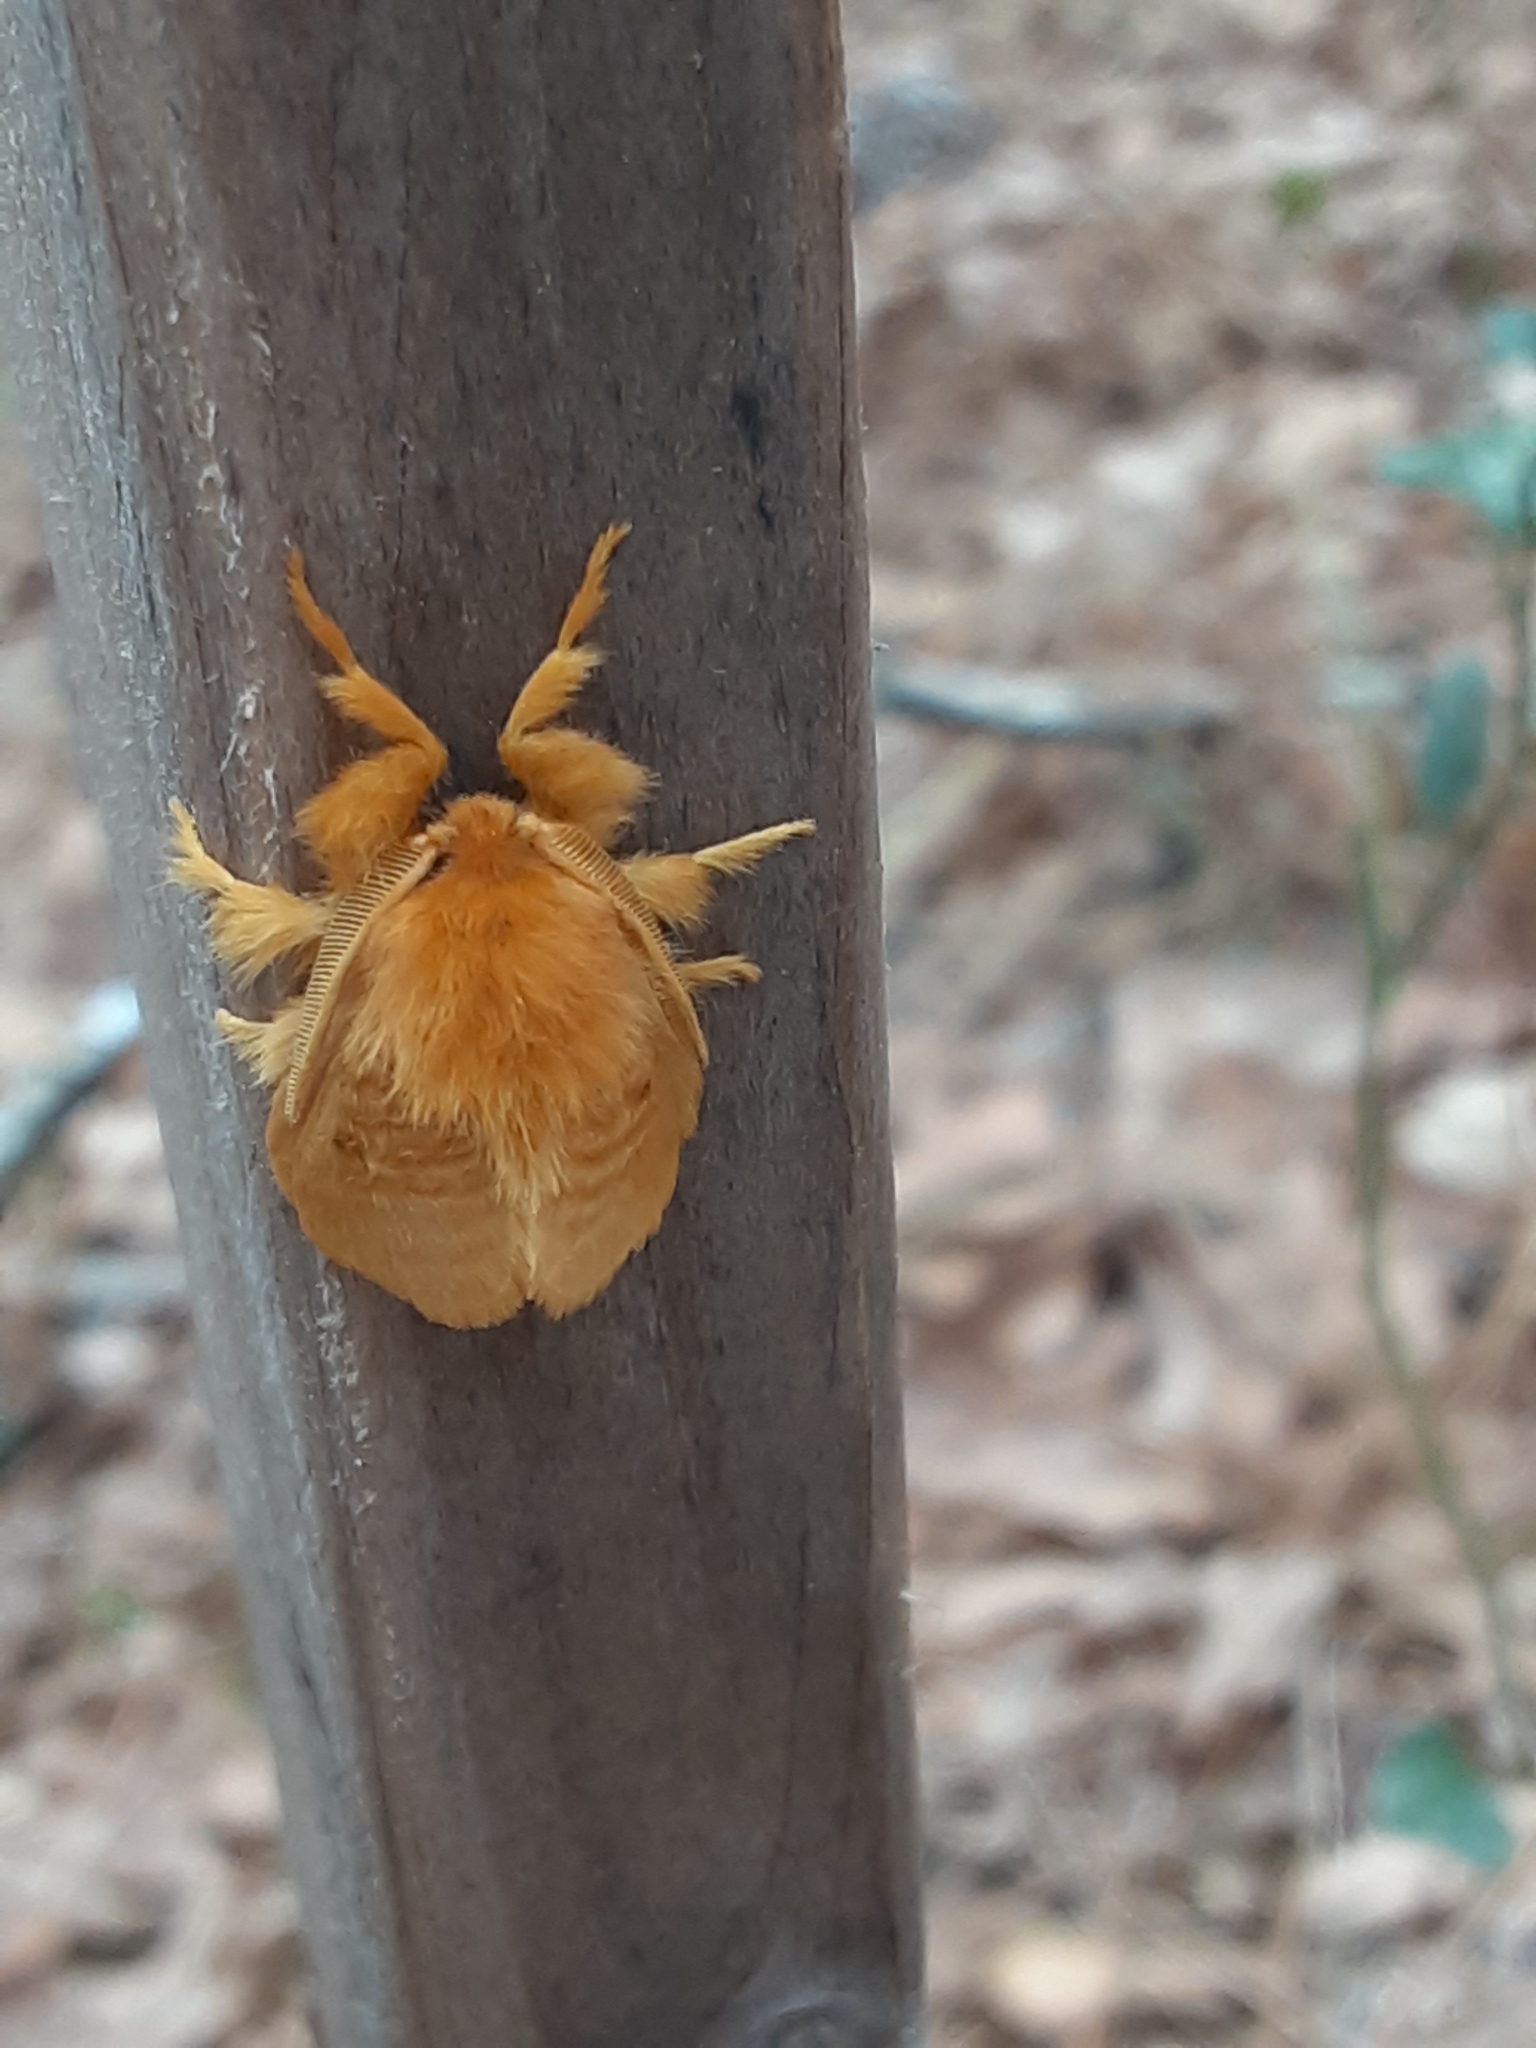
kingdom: Animalia
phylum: Arthropoda
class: Insecta
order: Lepidoptera
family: Megalopygidae
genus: Megalopyge
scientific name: Megalopyge pixidifera
